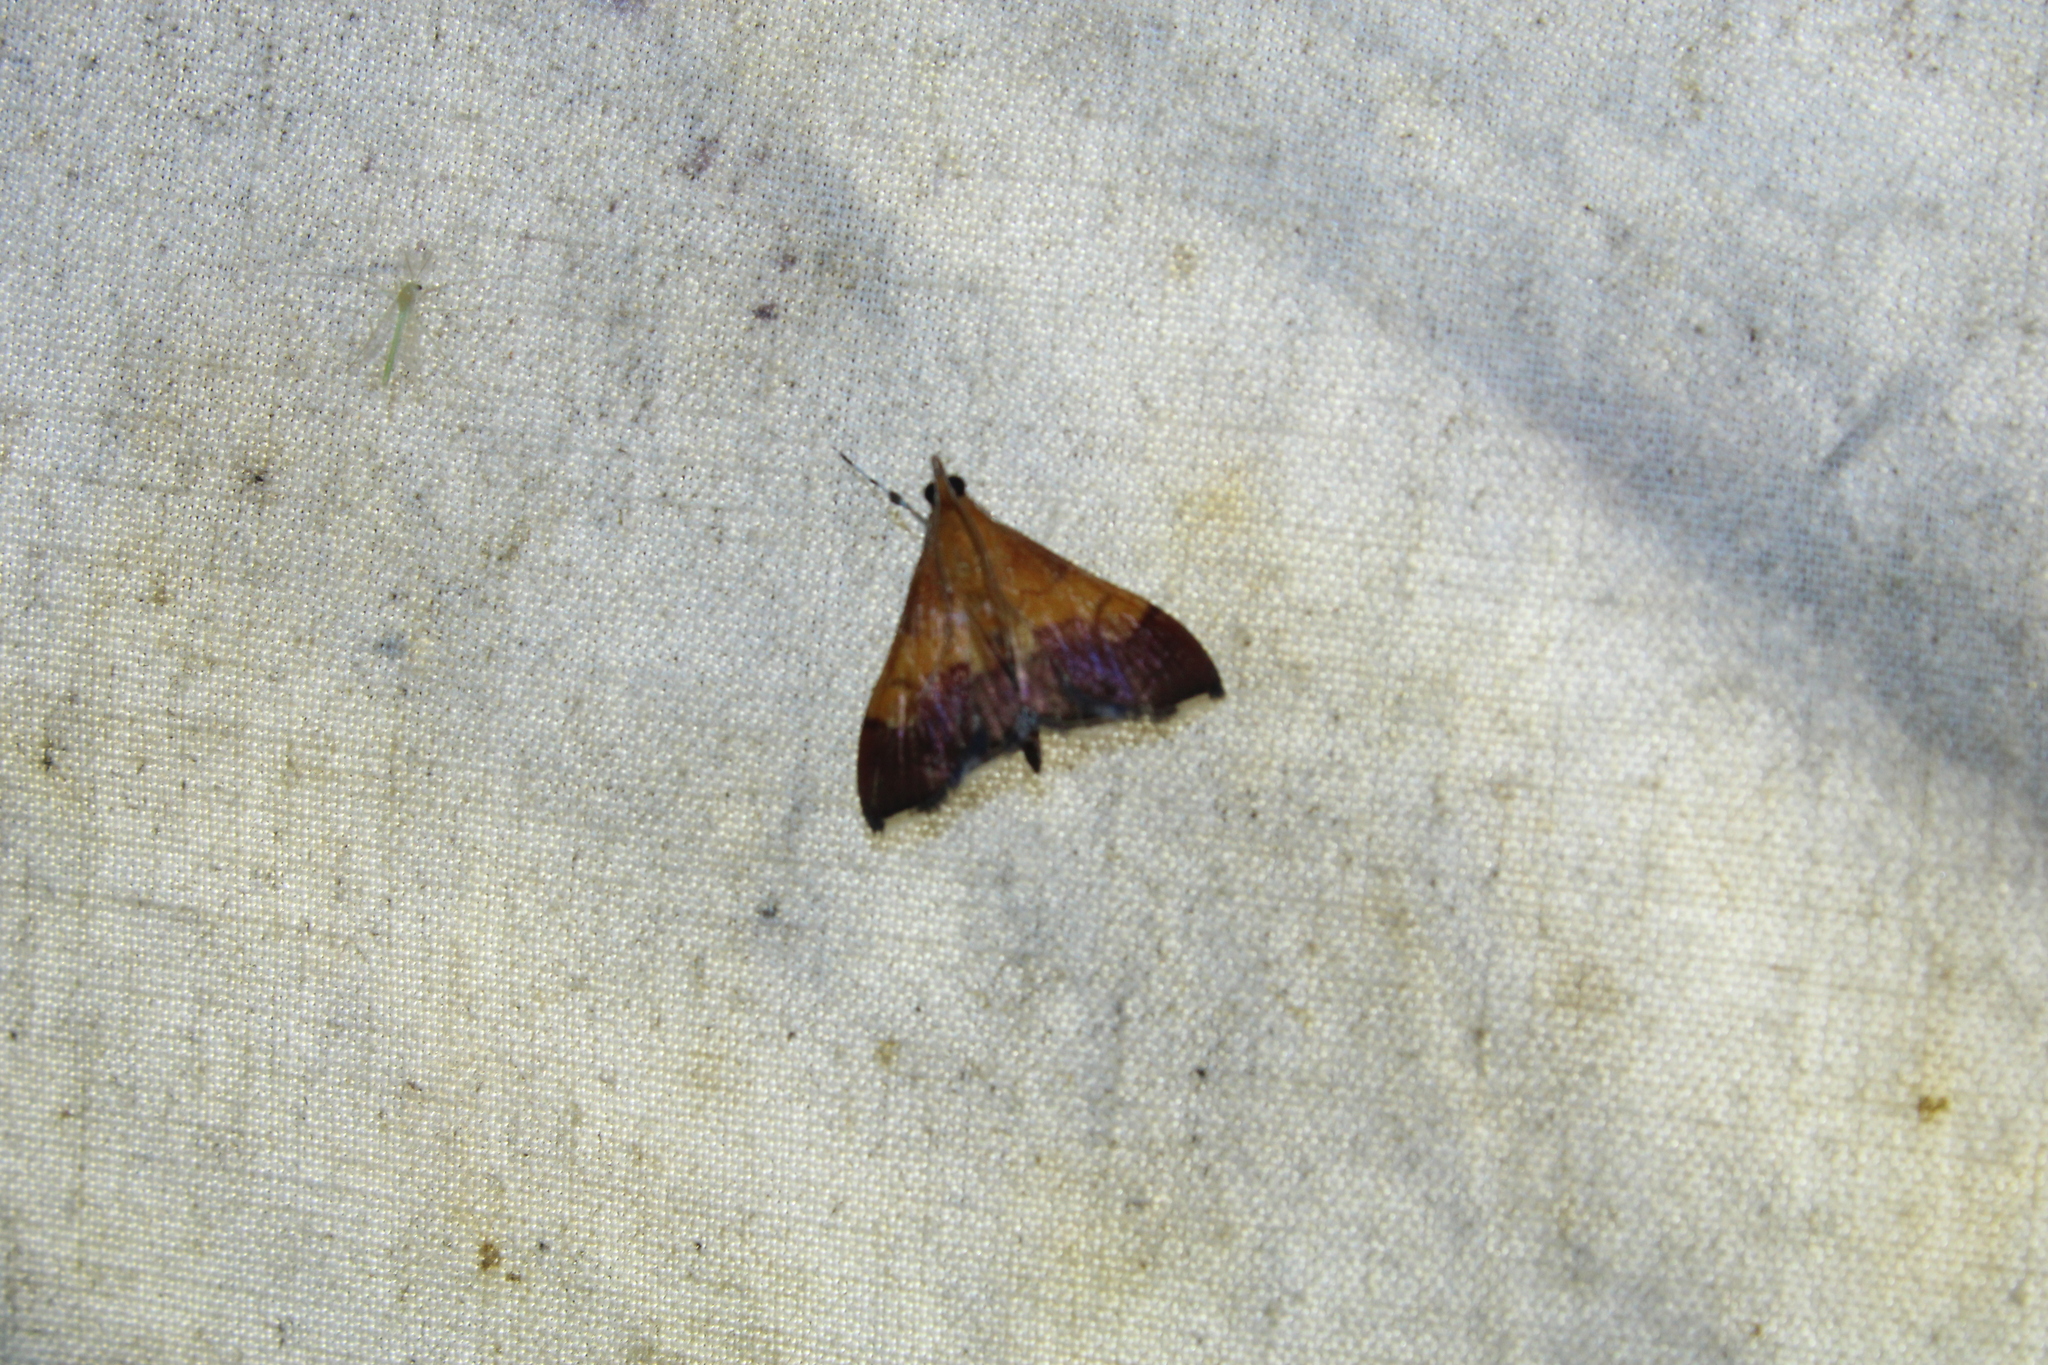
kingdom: Animalia
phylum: Arthropoda
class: Insecta
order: Lepidoptera
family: Crambidae
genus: Pyrausta
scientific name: Pyrausta bicoloralis
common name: Bicolored pyrausta moth
